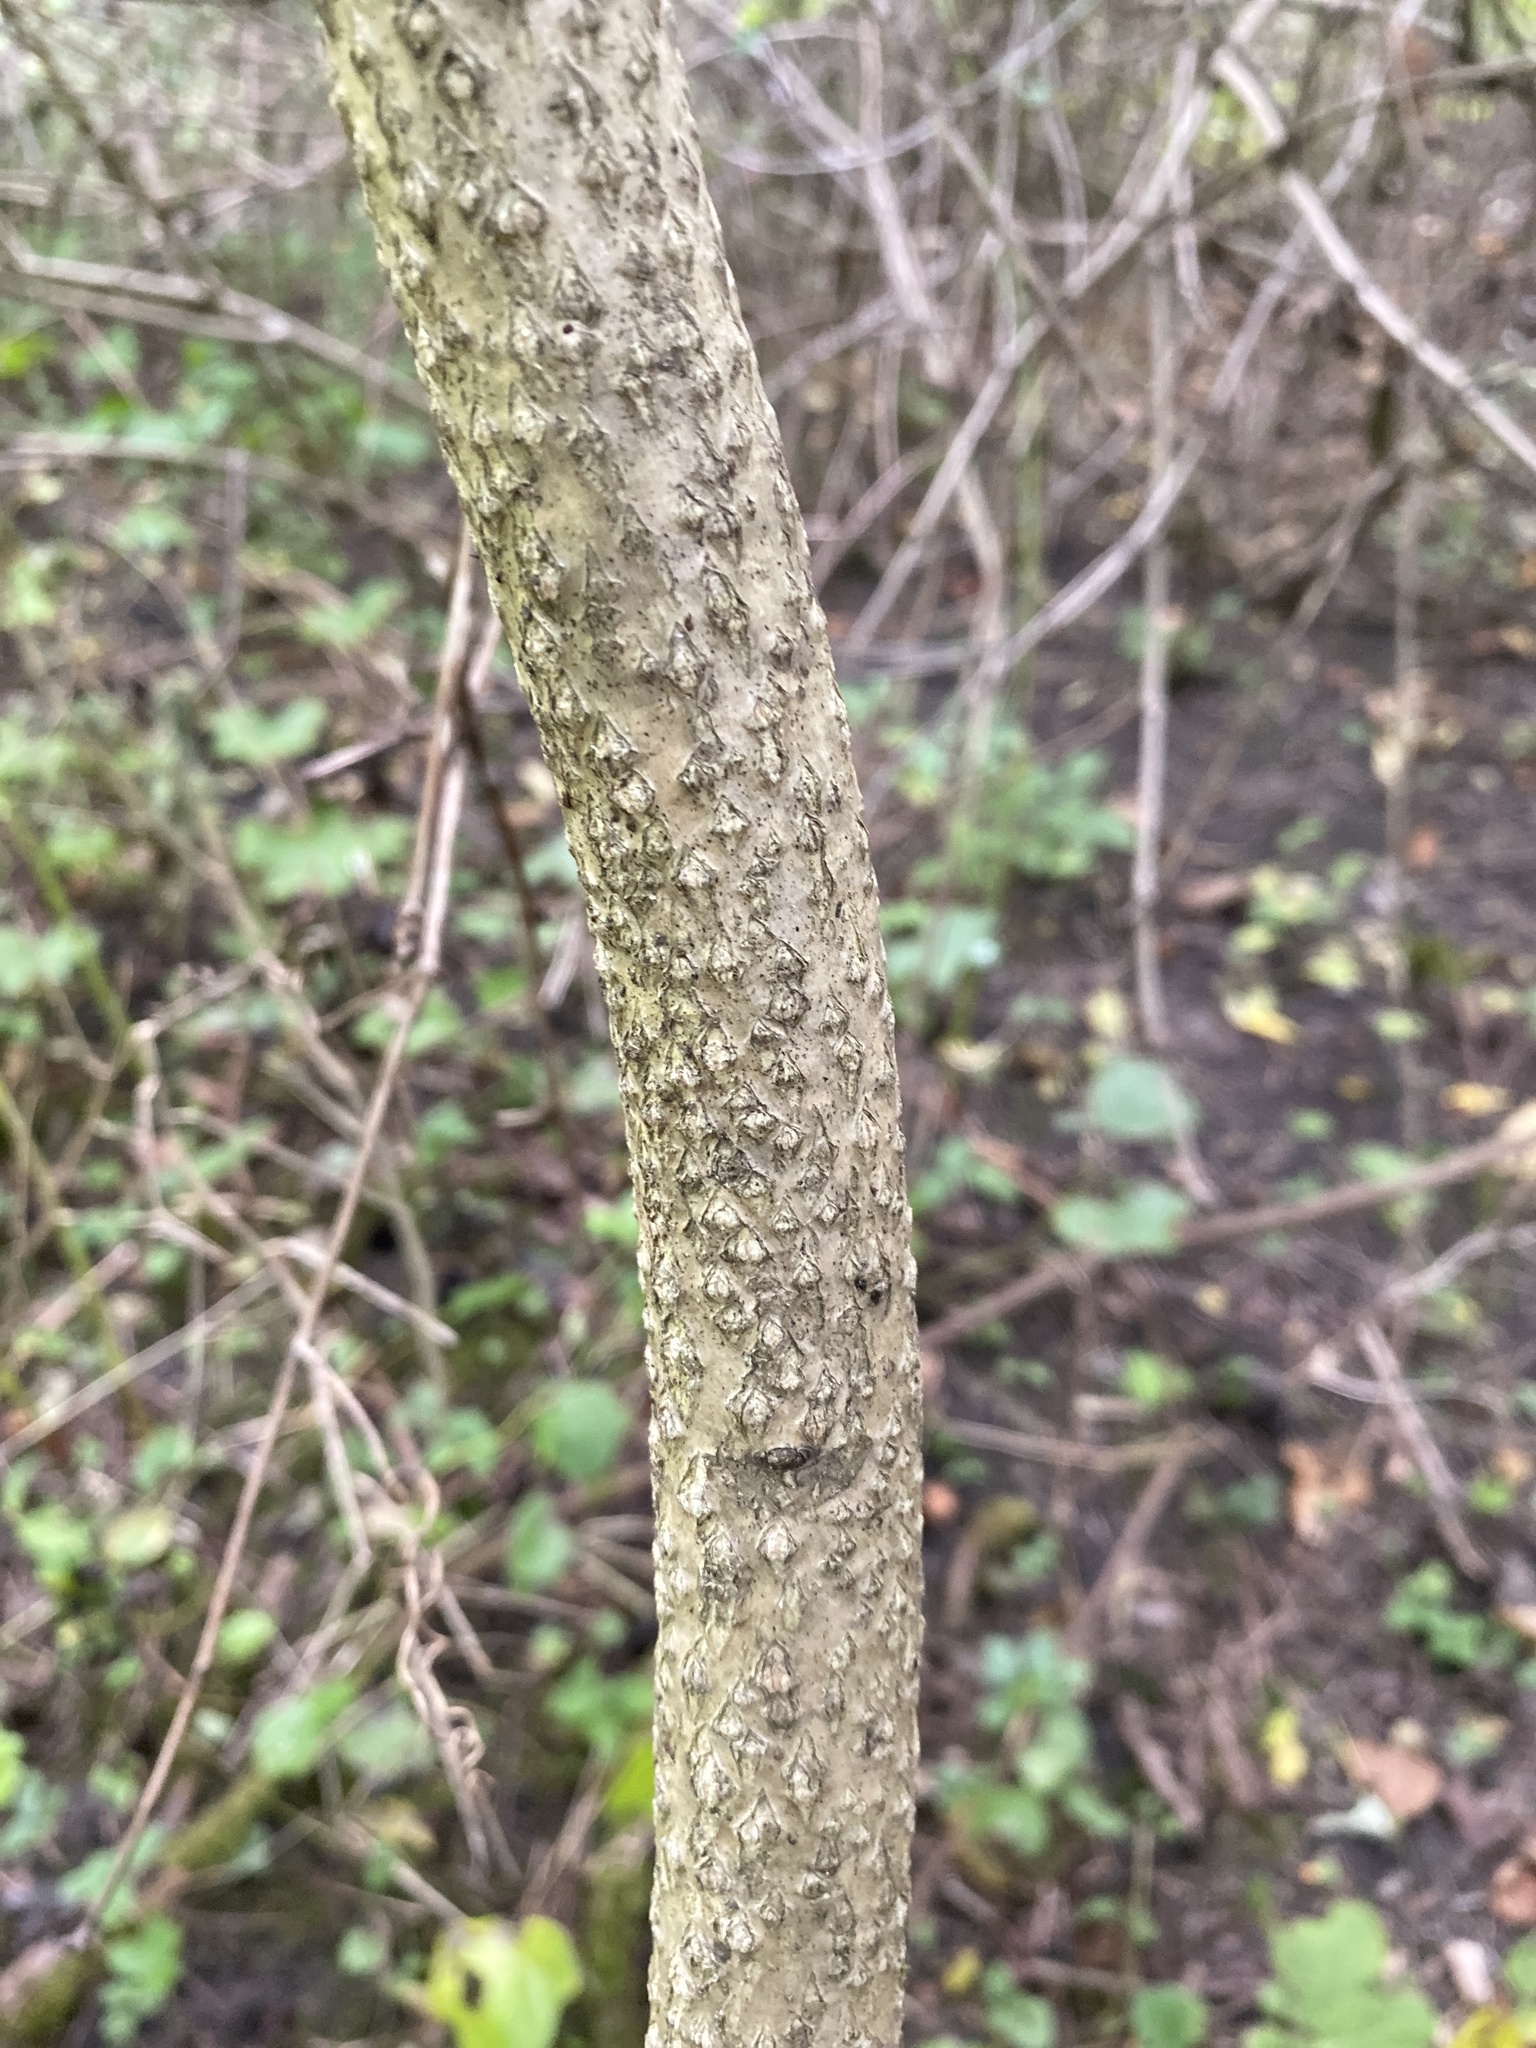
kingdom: Plantae
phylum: Tracheophyta
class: Magnoliopsida
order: Sapindales
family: Simaroubaceae
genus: Ailanthus
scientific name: Ailanthus altissima
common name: Tree-of-heaven
